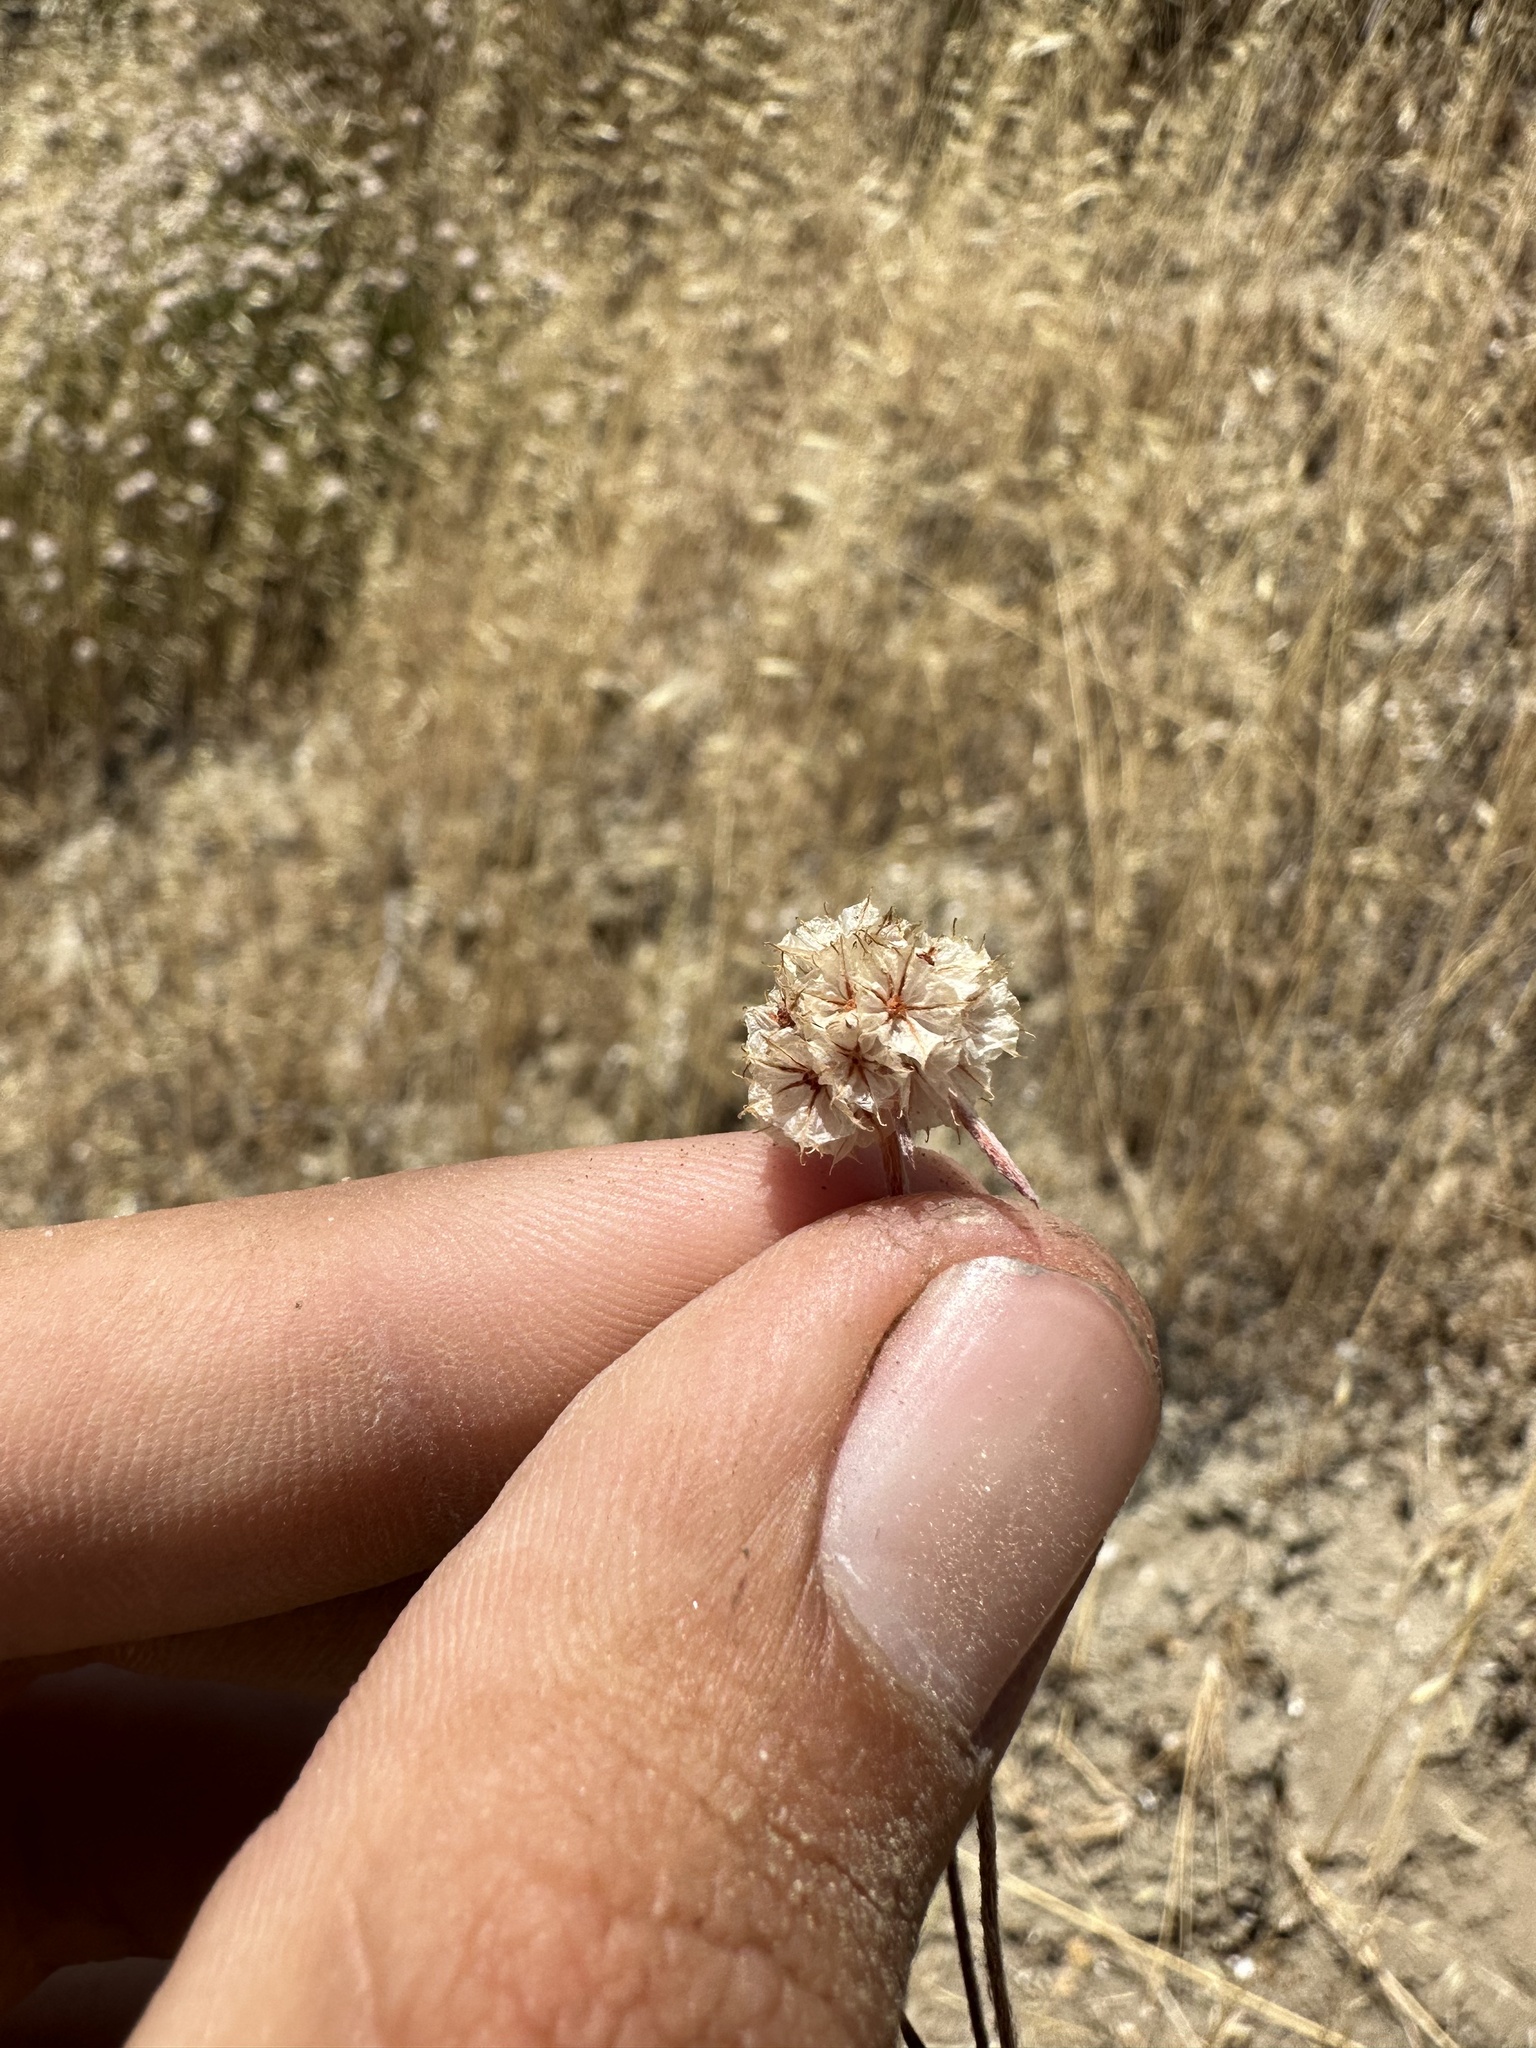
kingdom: Plantae
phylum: Tracheophyta
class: Magnoliopsida
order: Caryophyllales
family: Polygonaceae
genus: Chorizanthe
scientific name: Chorizanthe membranacea
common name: Pink spineflower
